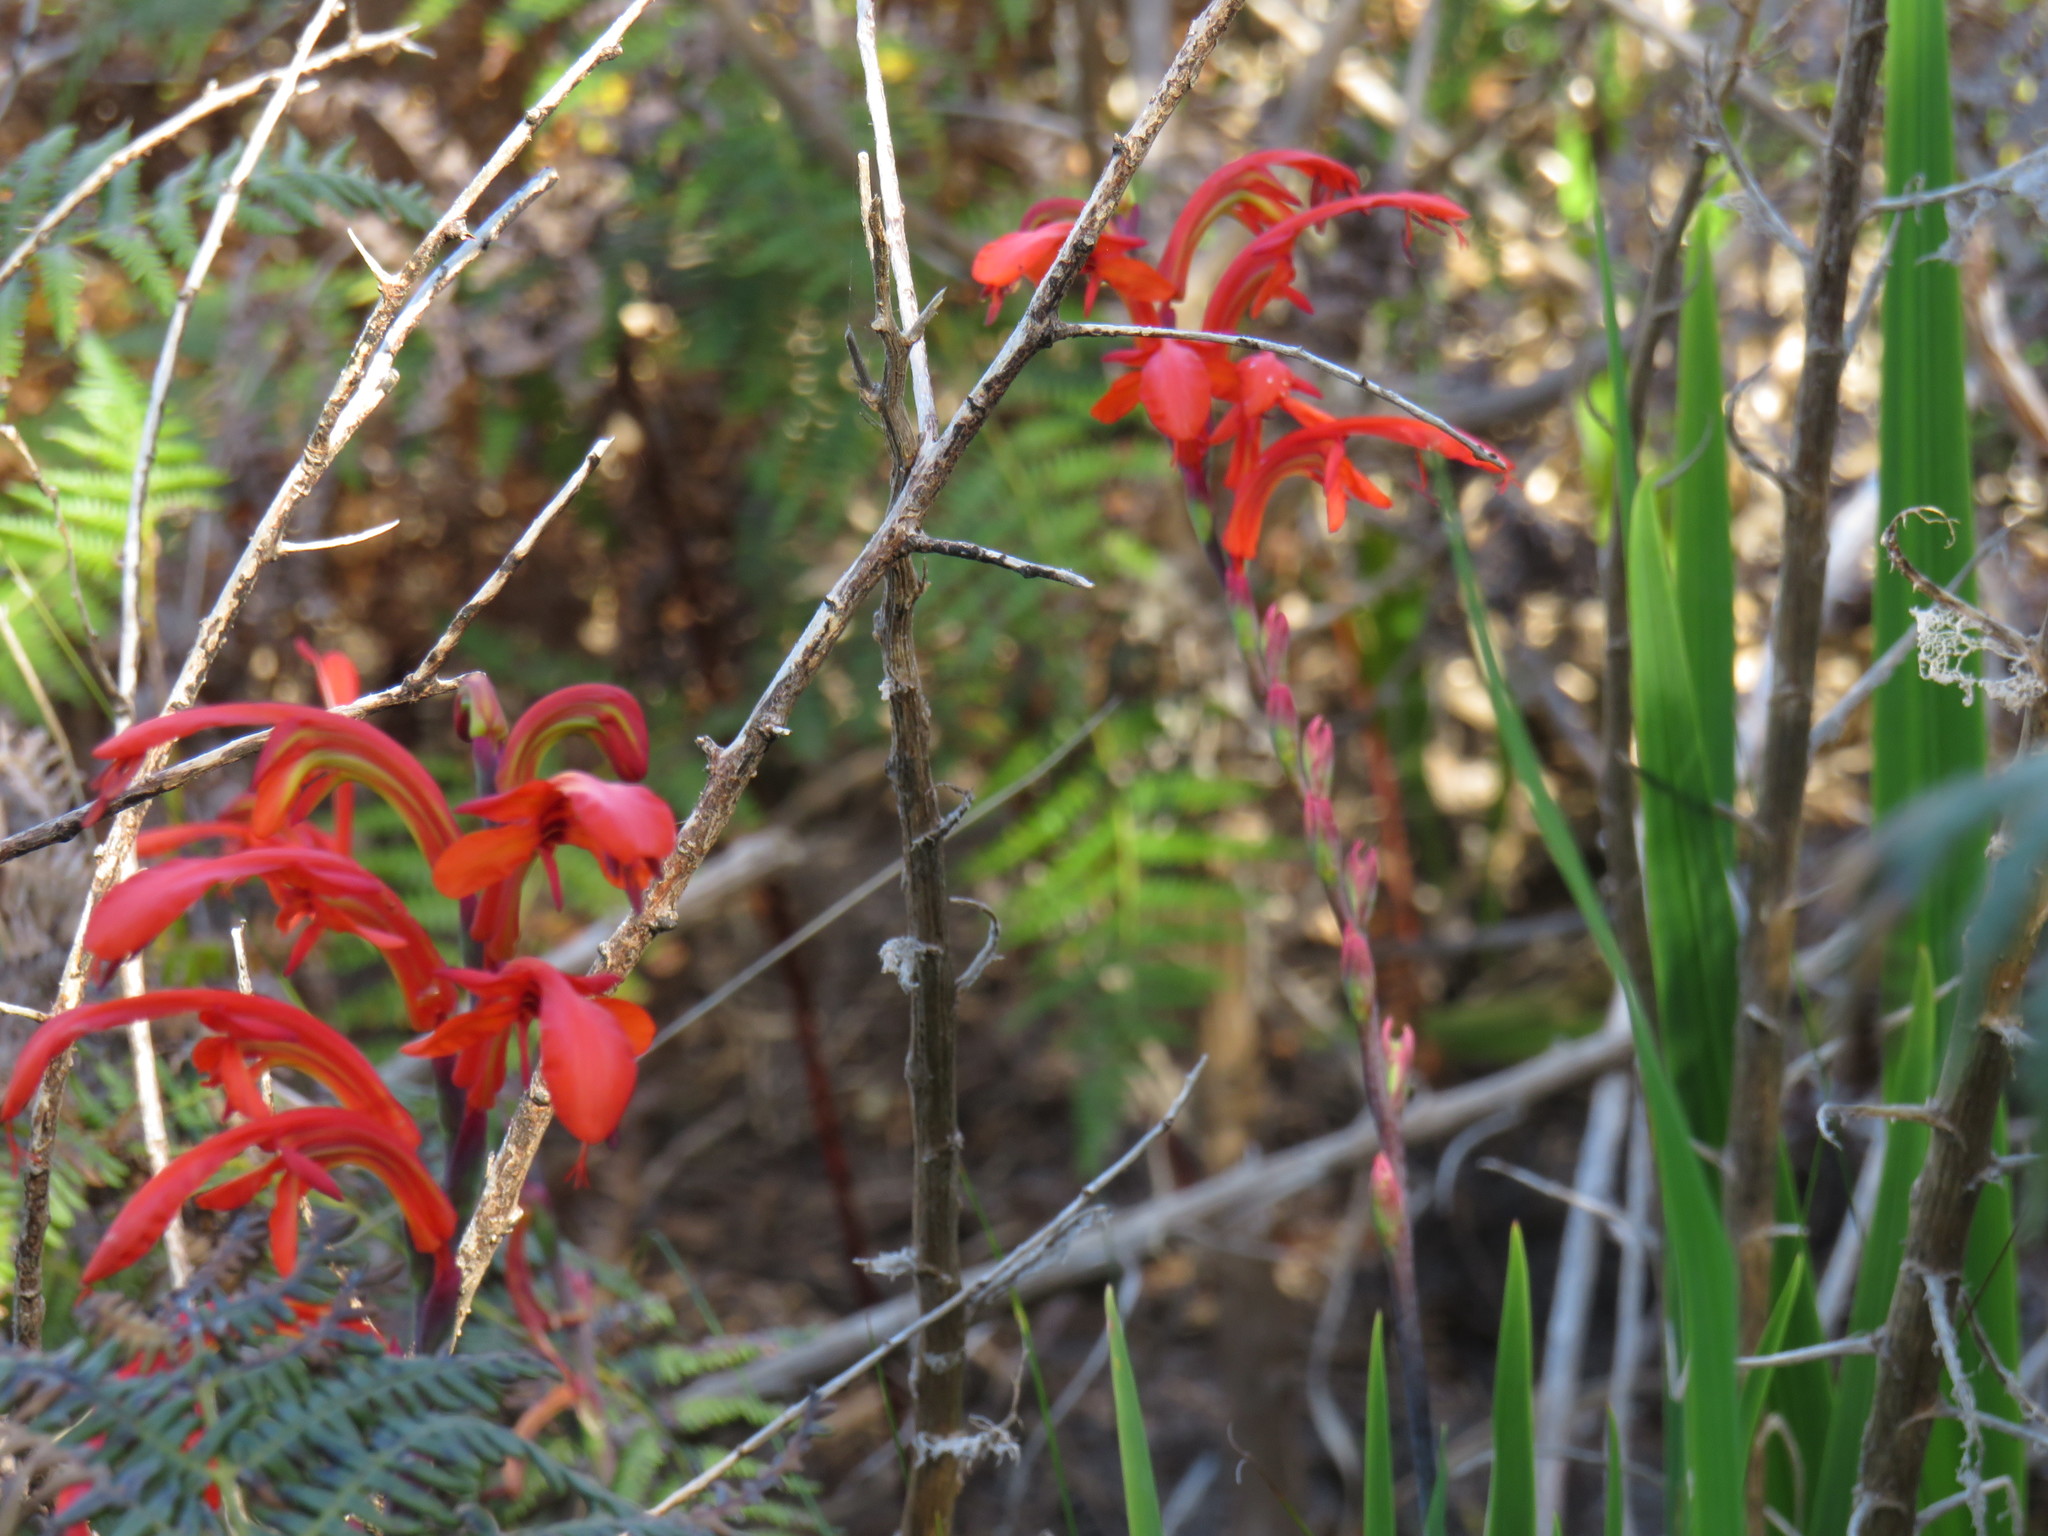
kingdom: Plantae
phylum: Tracheophyta
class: Liliopsida
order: Asparagales
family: Iridaceae
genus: Chasmanthe
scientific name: Chasmanthe aethiopica
